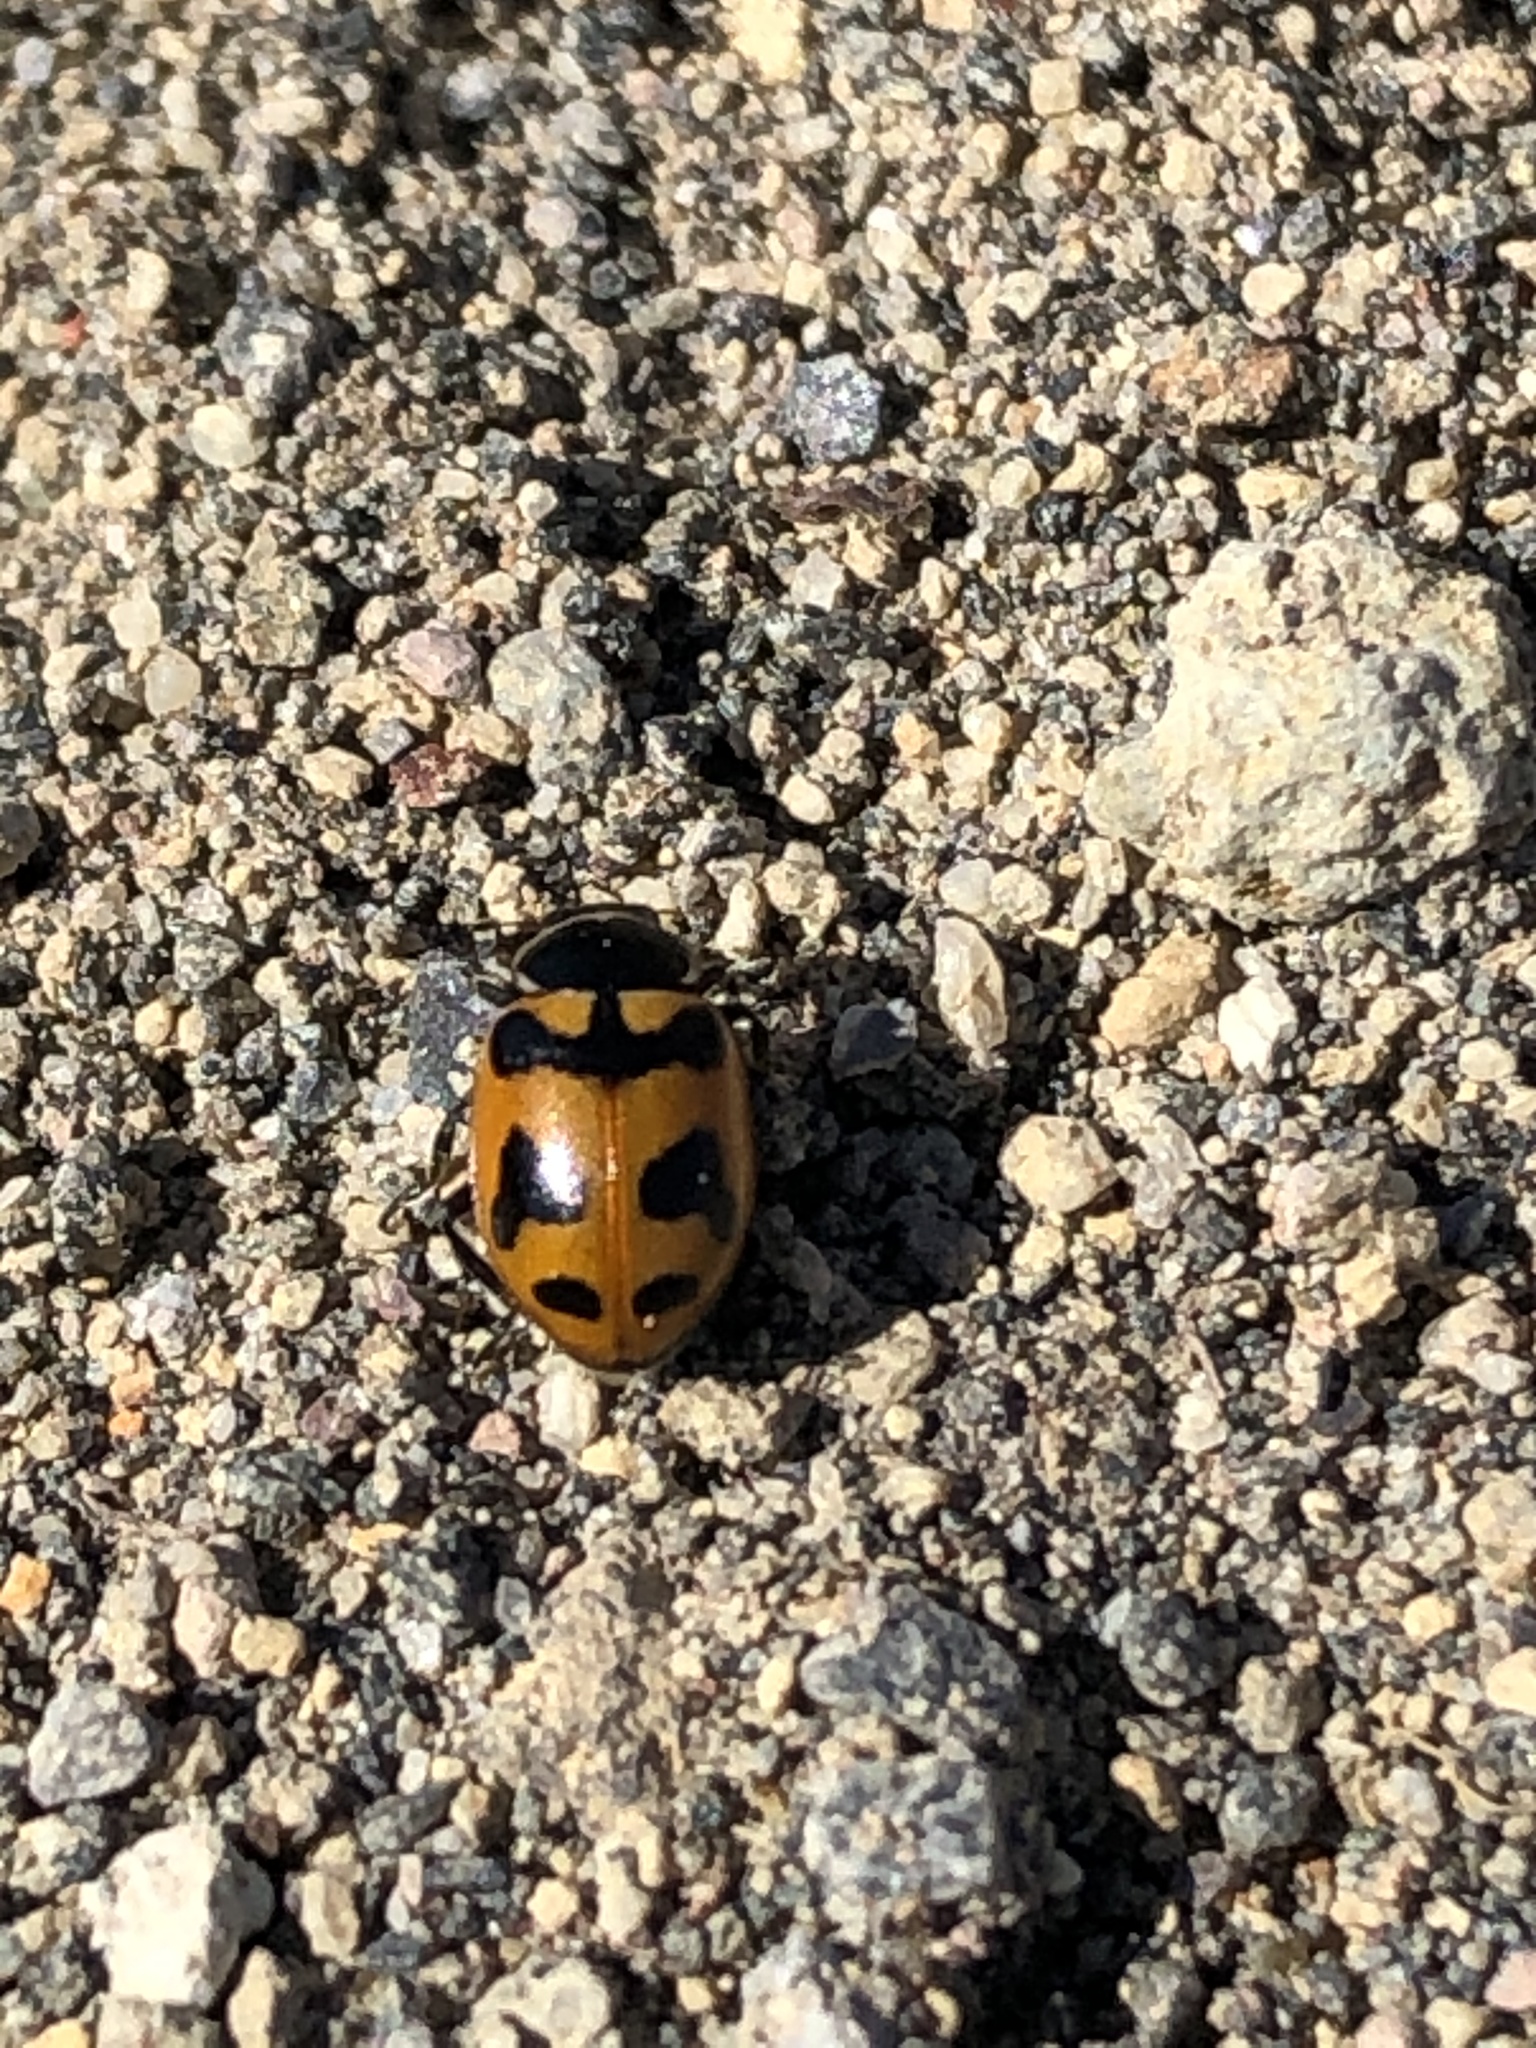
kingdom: Animalia
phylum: Arthropoda
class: Insecta
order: Coleoptera
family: Coccinellidae
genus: Hippodamia
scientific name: Hippodamia oregonensis
